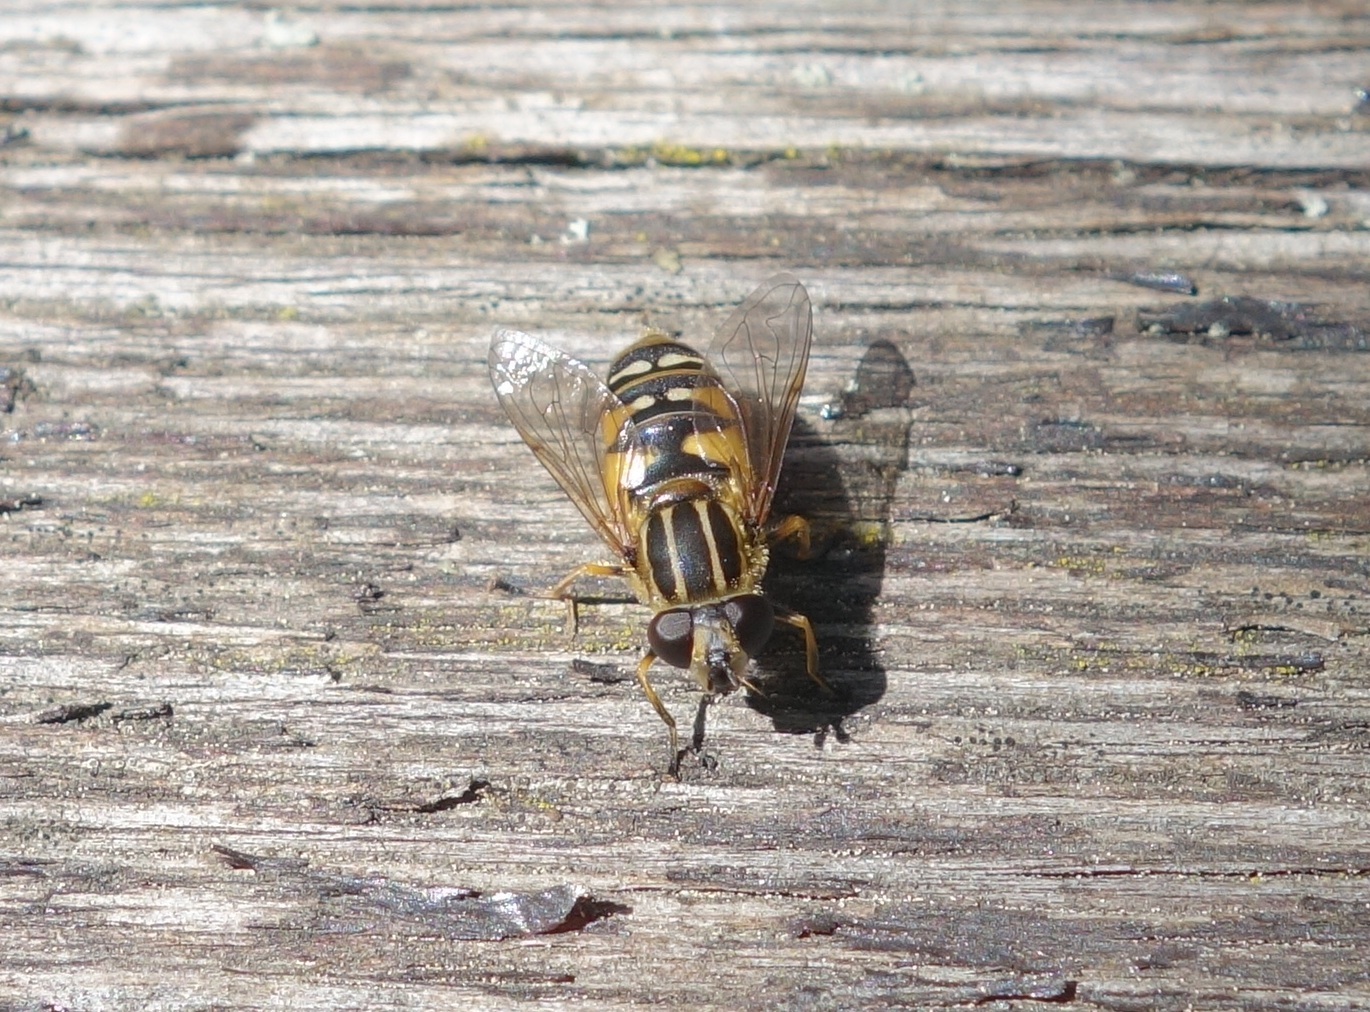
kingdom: Animalia
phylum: Arthropoda
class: Insecta
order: Diptera
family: Syrphidae
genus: Helophilus
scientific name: Helophilus pendulus
